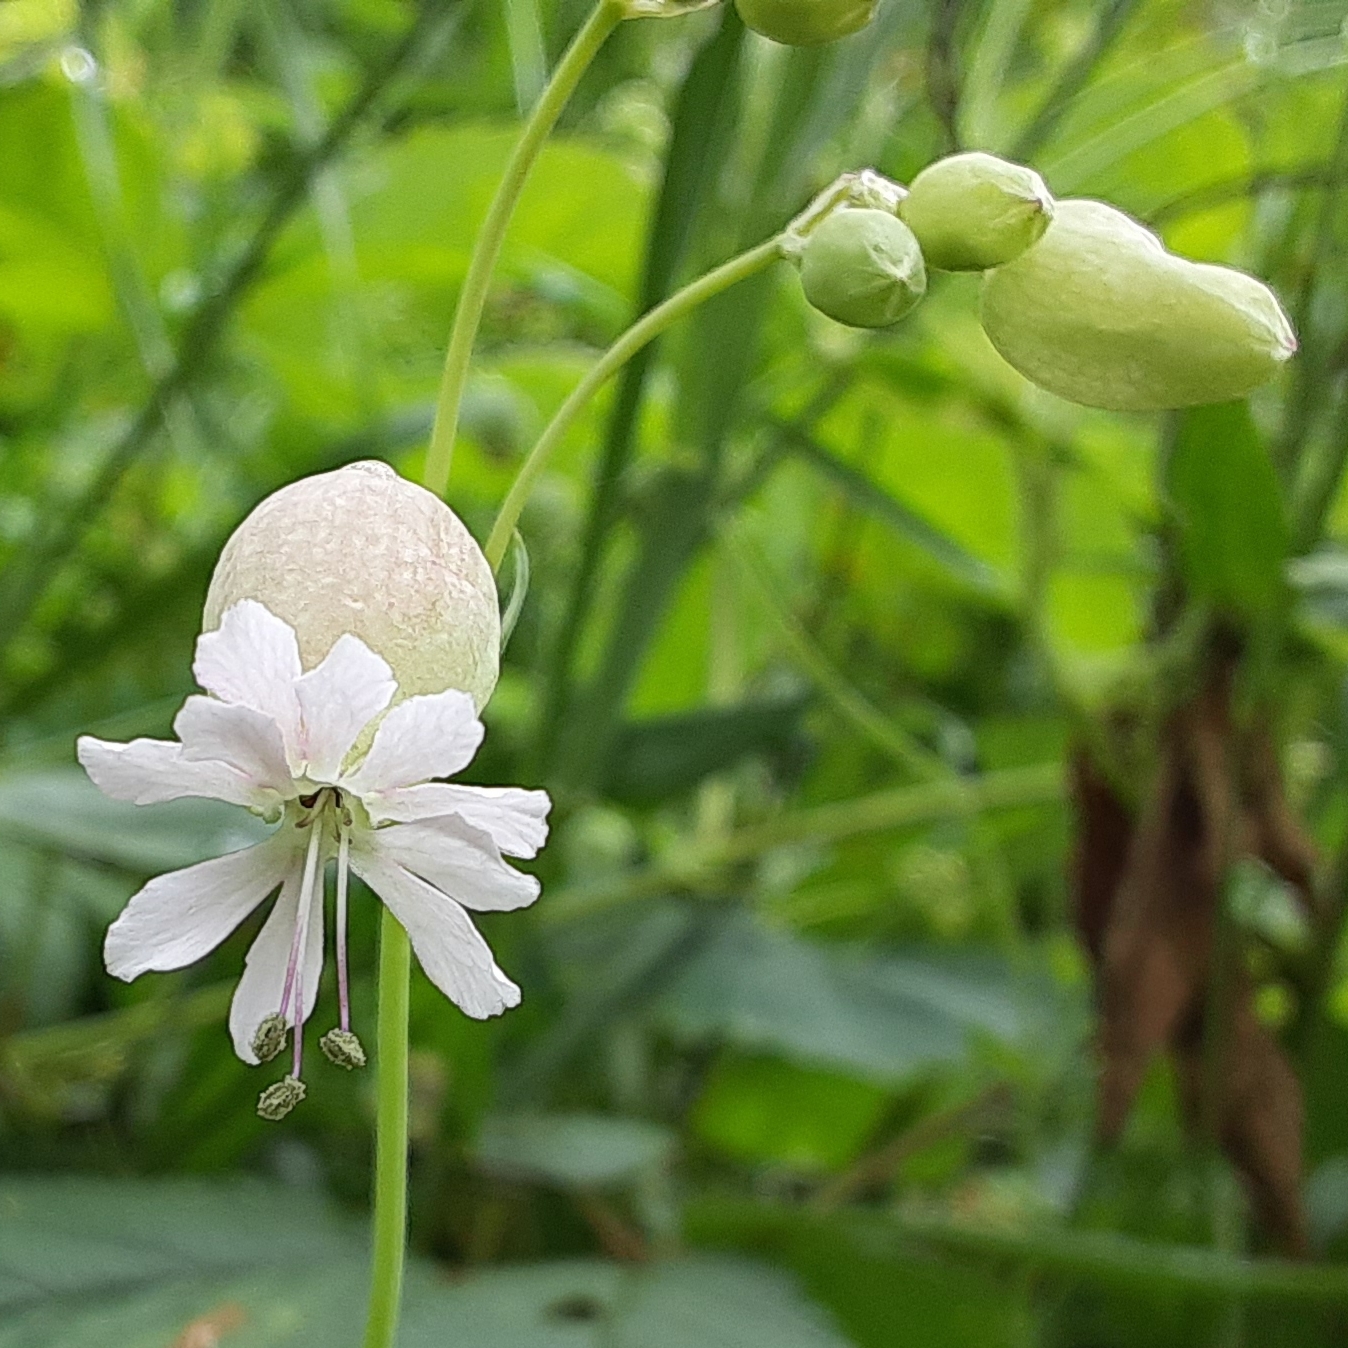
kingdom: Plantae
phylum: Tracheophyta
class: Magnoliopsida
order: Caryophyllales
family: Caryophyllaceae
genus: Silene
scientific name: Silene vulgaris
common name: Bladder campion
